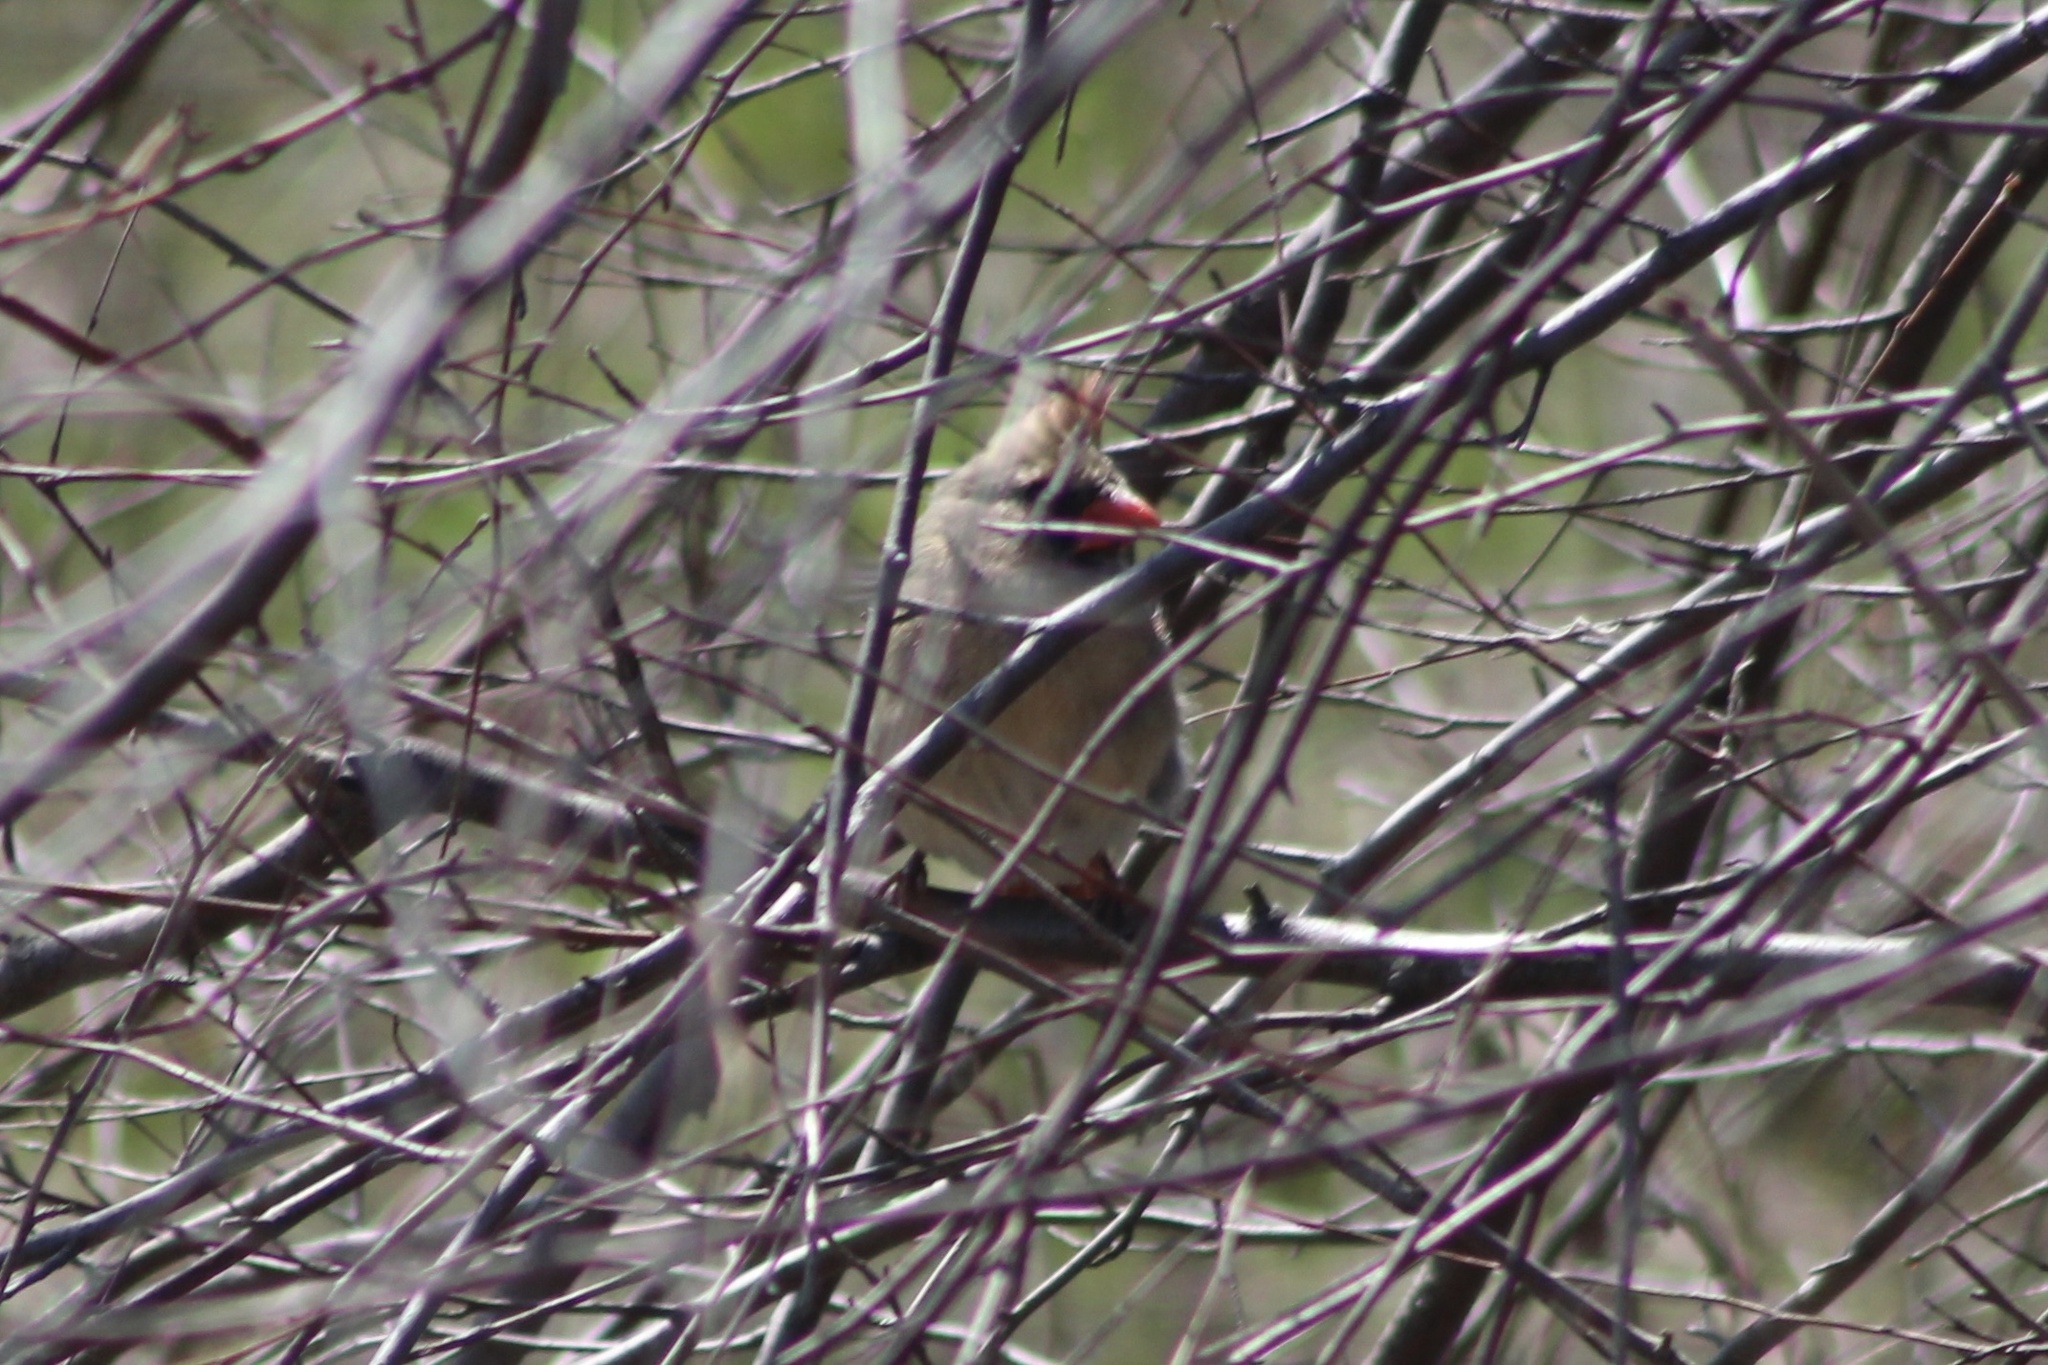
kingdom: Animalia
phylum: Chordata
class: Aves
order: Passeriformes
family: Cardinalidae
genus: Cardinalis
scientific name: Cardinalis cardinalis
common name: Northern cardinal
